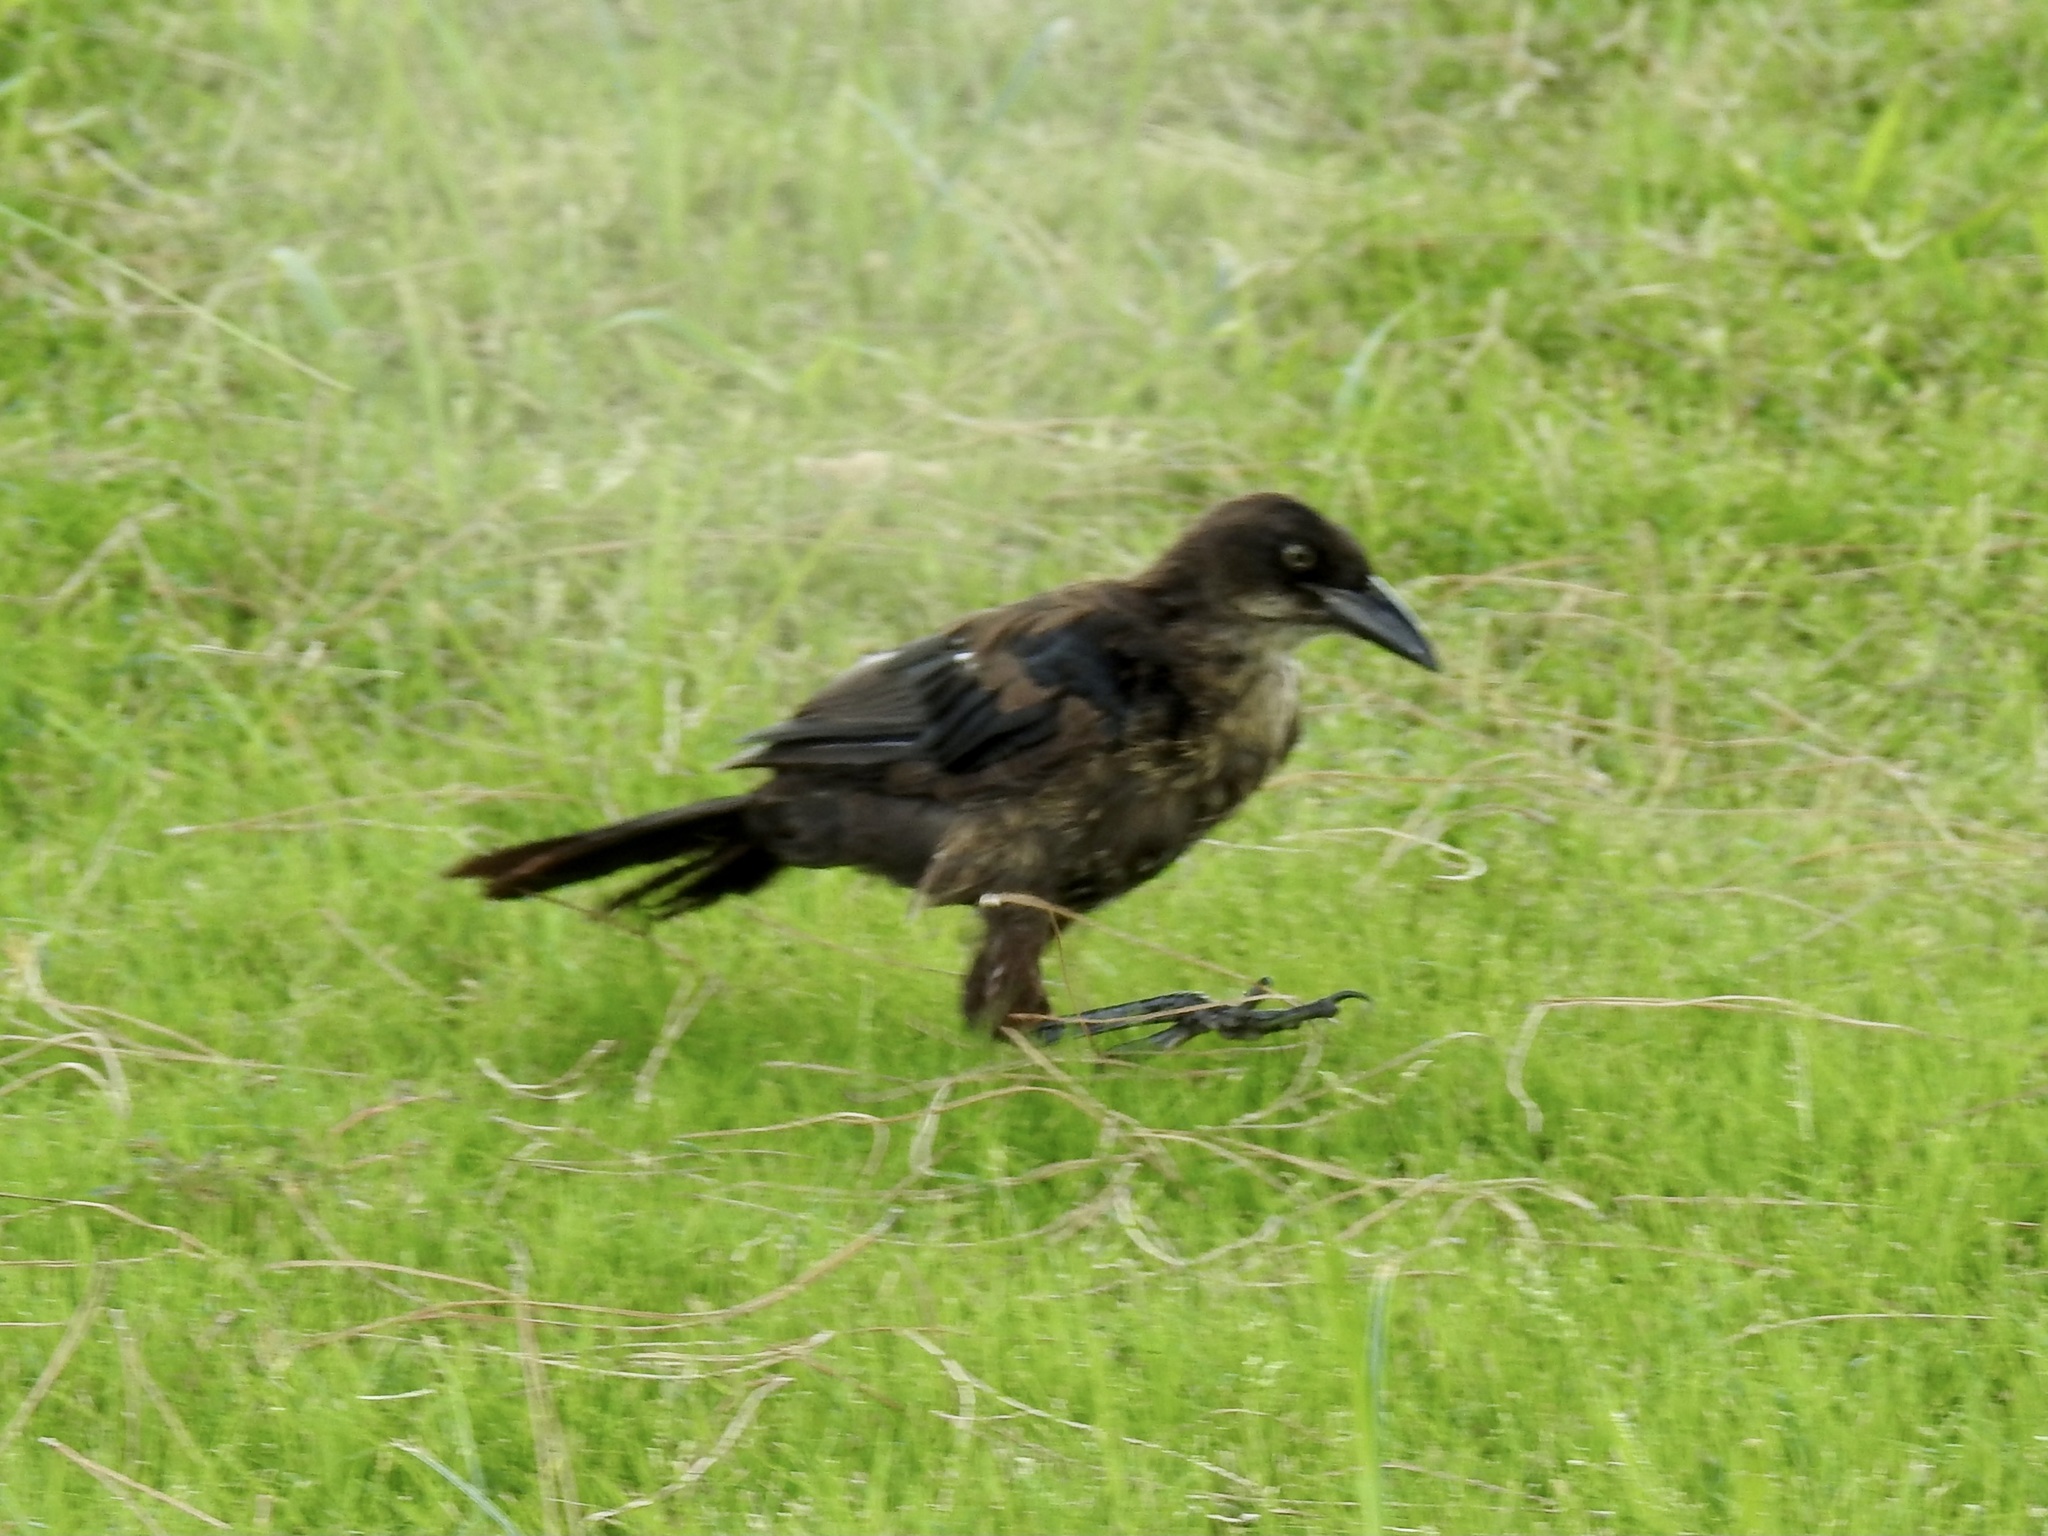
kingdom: Animalia
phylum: Chordata
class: Aves
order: Passeriformes
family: Icteridae
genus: Quiscalus
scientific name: Quiscalus mexicanus
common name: Great-tailed grackle
